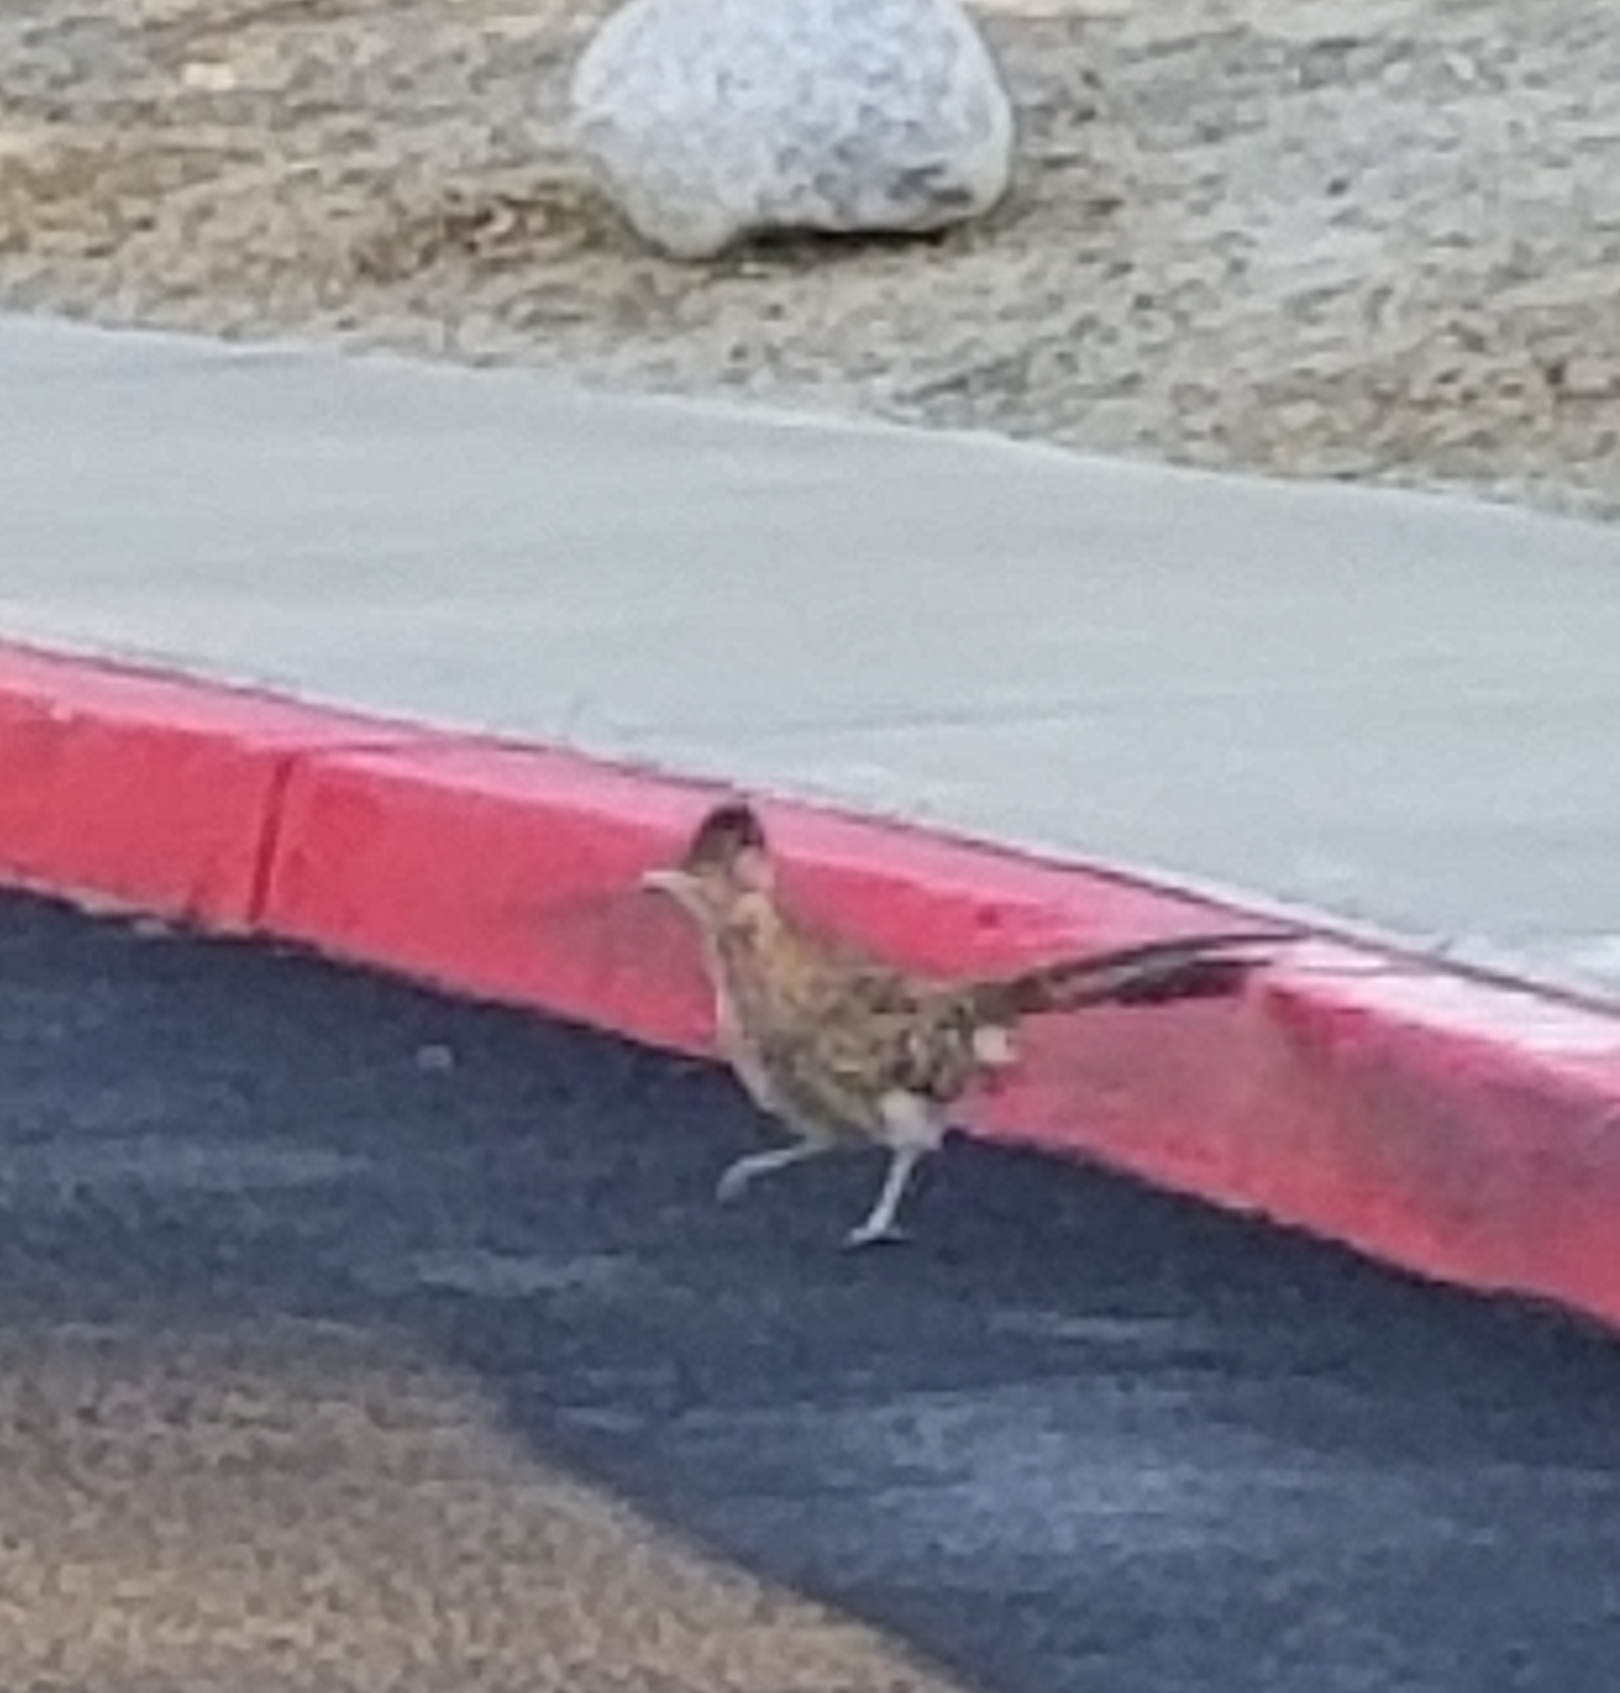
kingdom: Animalia
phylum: Chordata
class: Aves
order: Cuculiformes
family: Cuculidae
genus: Geococcyx
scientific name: Geococcyx californianus
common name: Greater roadrunner
